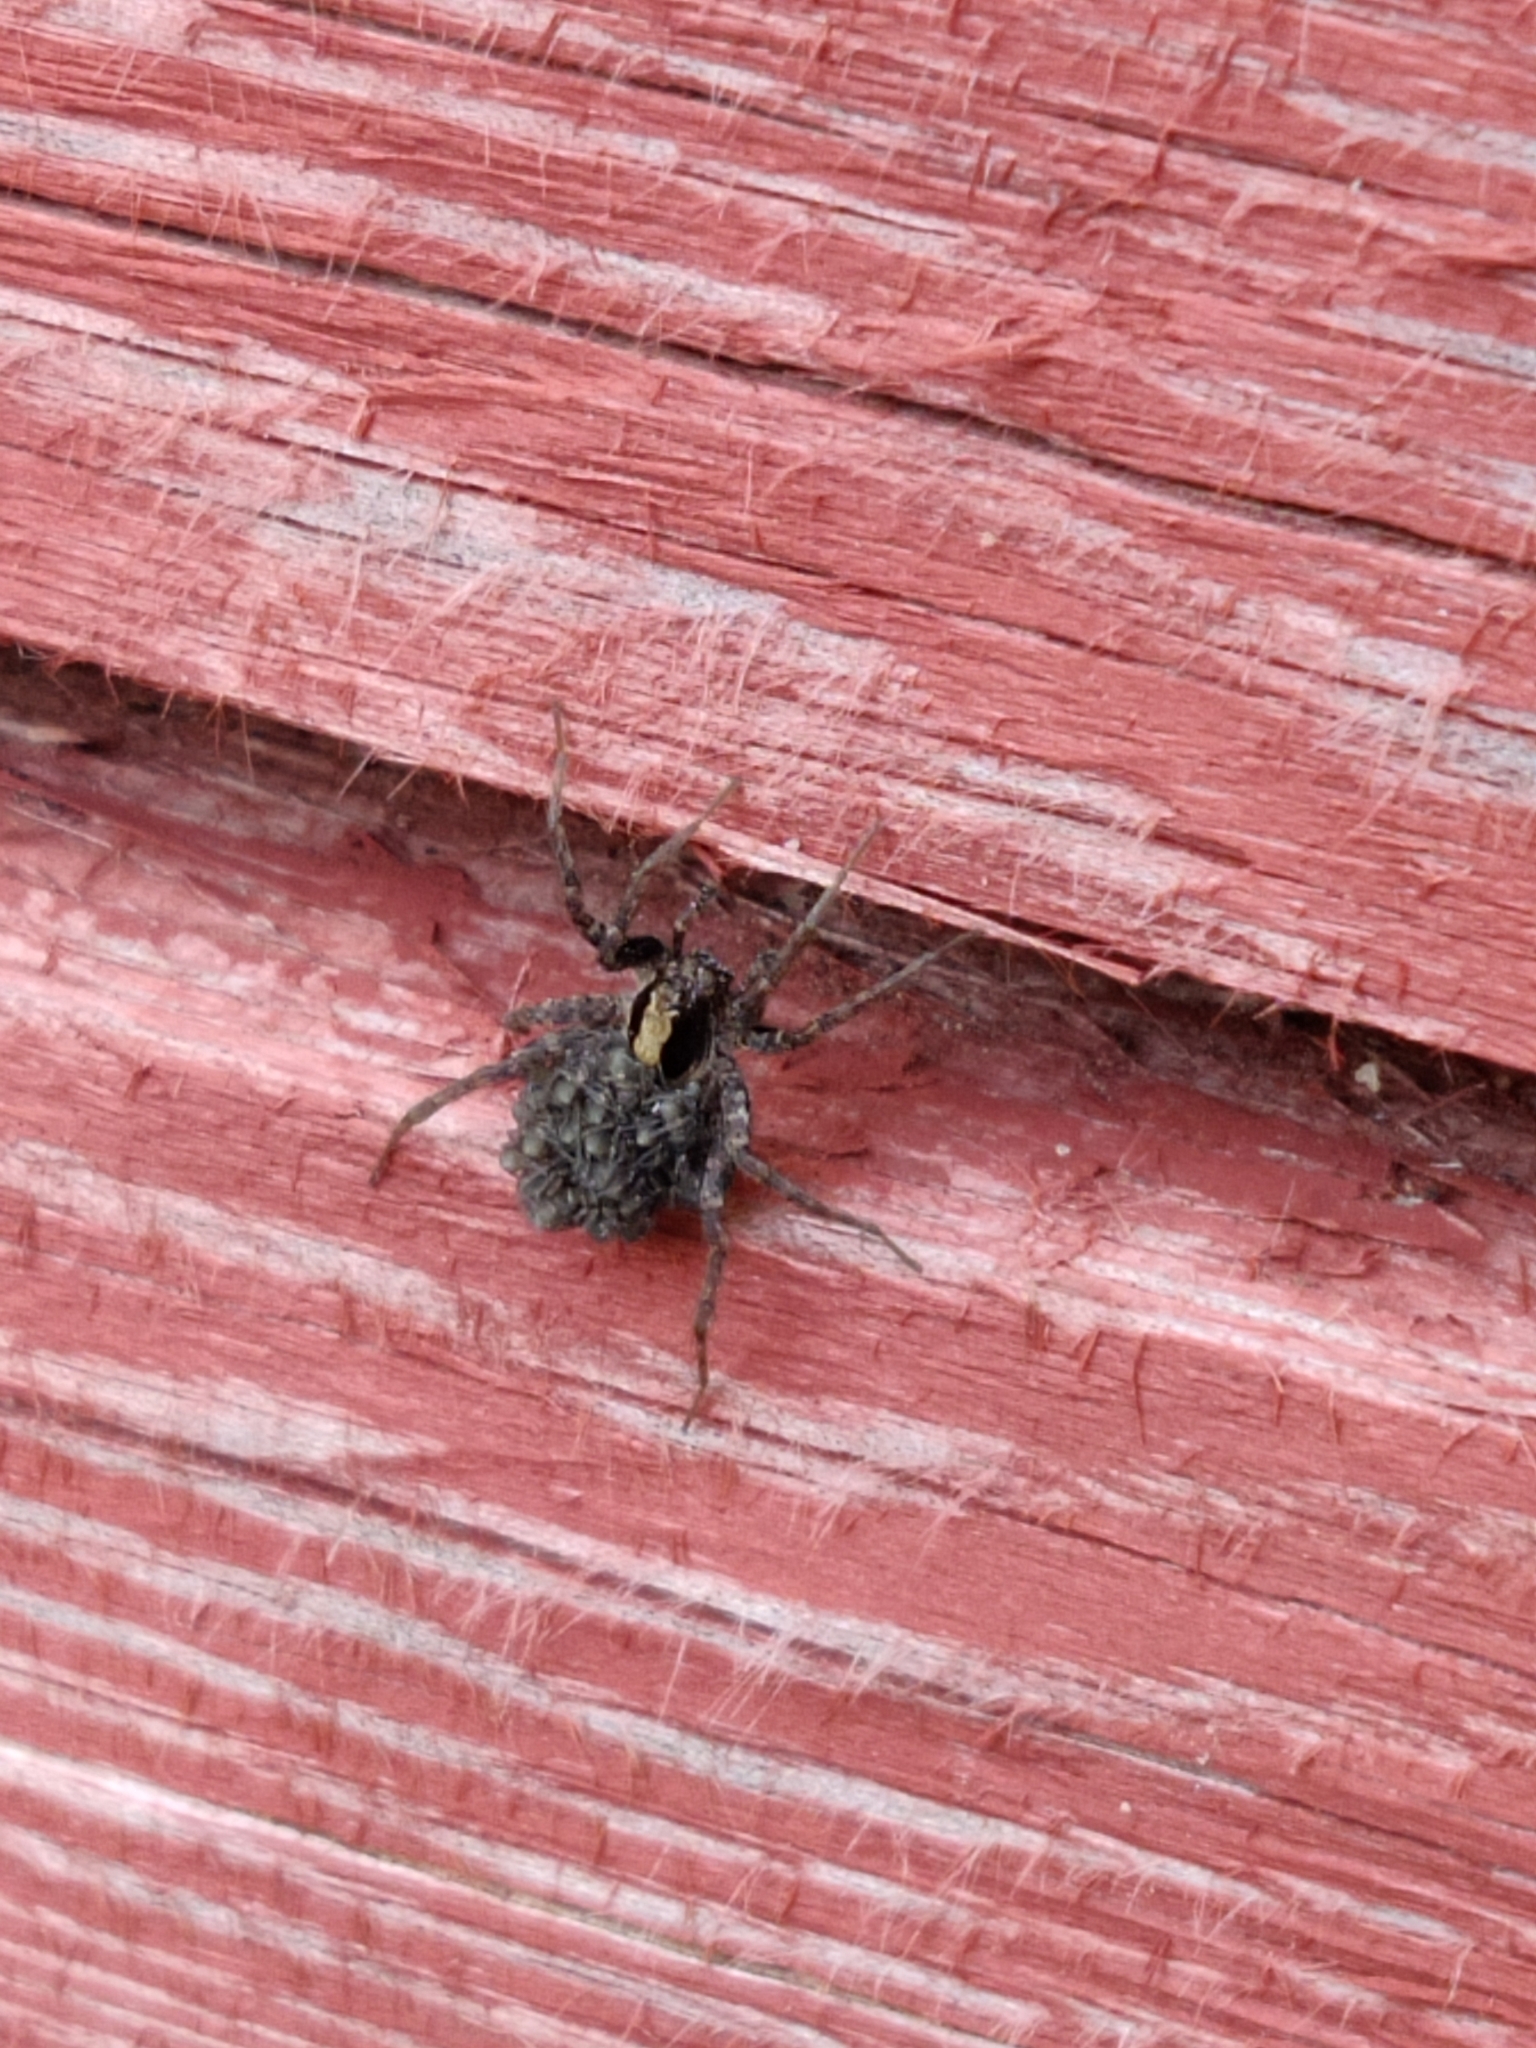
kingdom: Animalia
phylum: Arthropoda
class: Arachnida
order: Araneae
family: Lycosidae
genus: Xerolycosa
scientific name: Xerolycosa nemoralis
